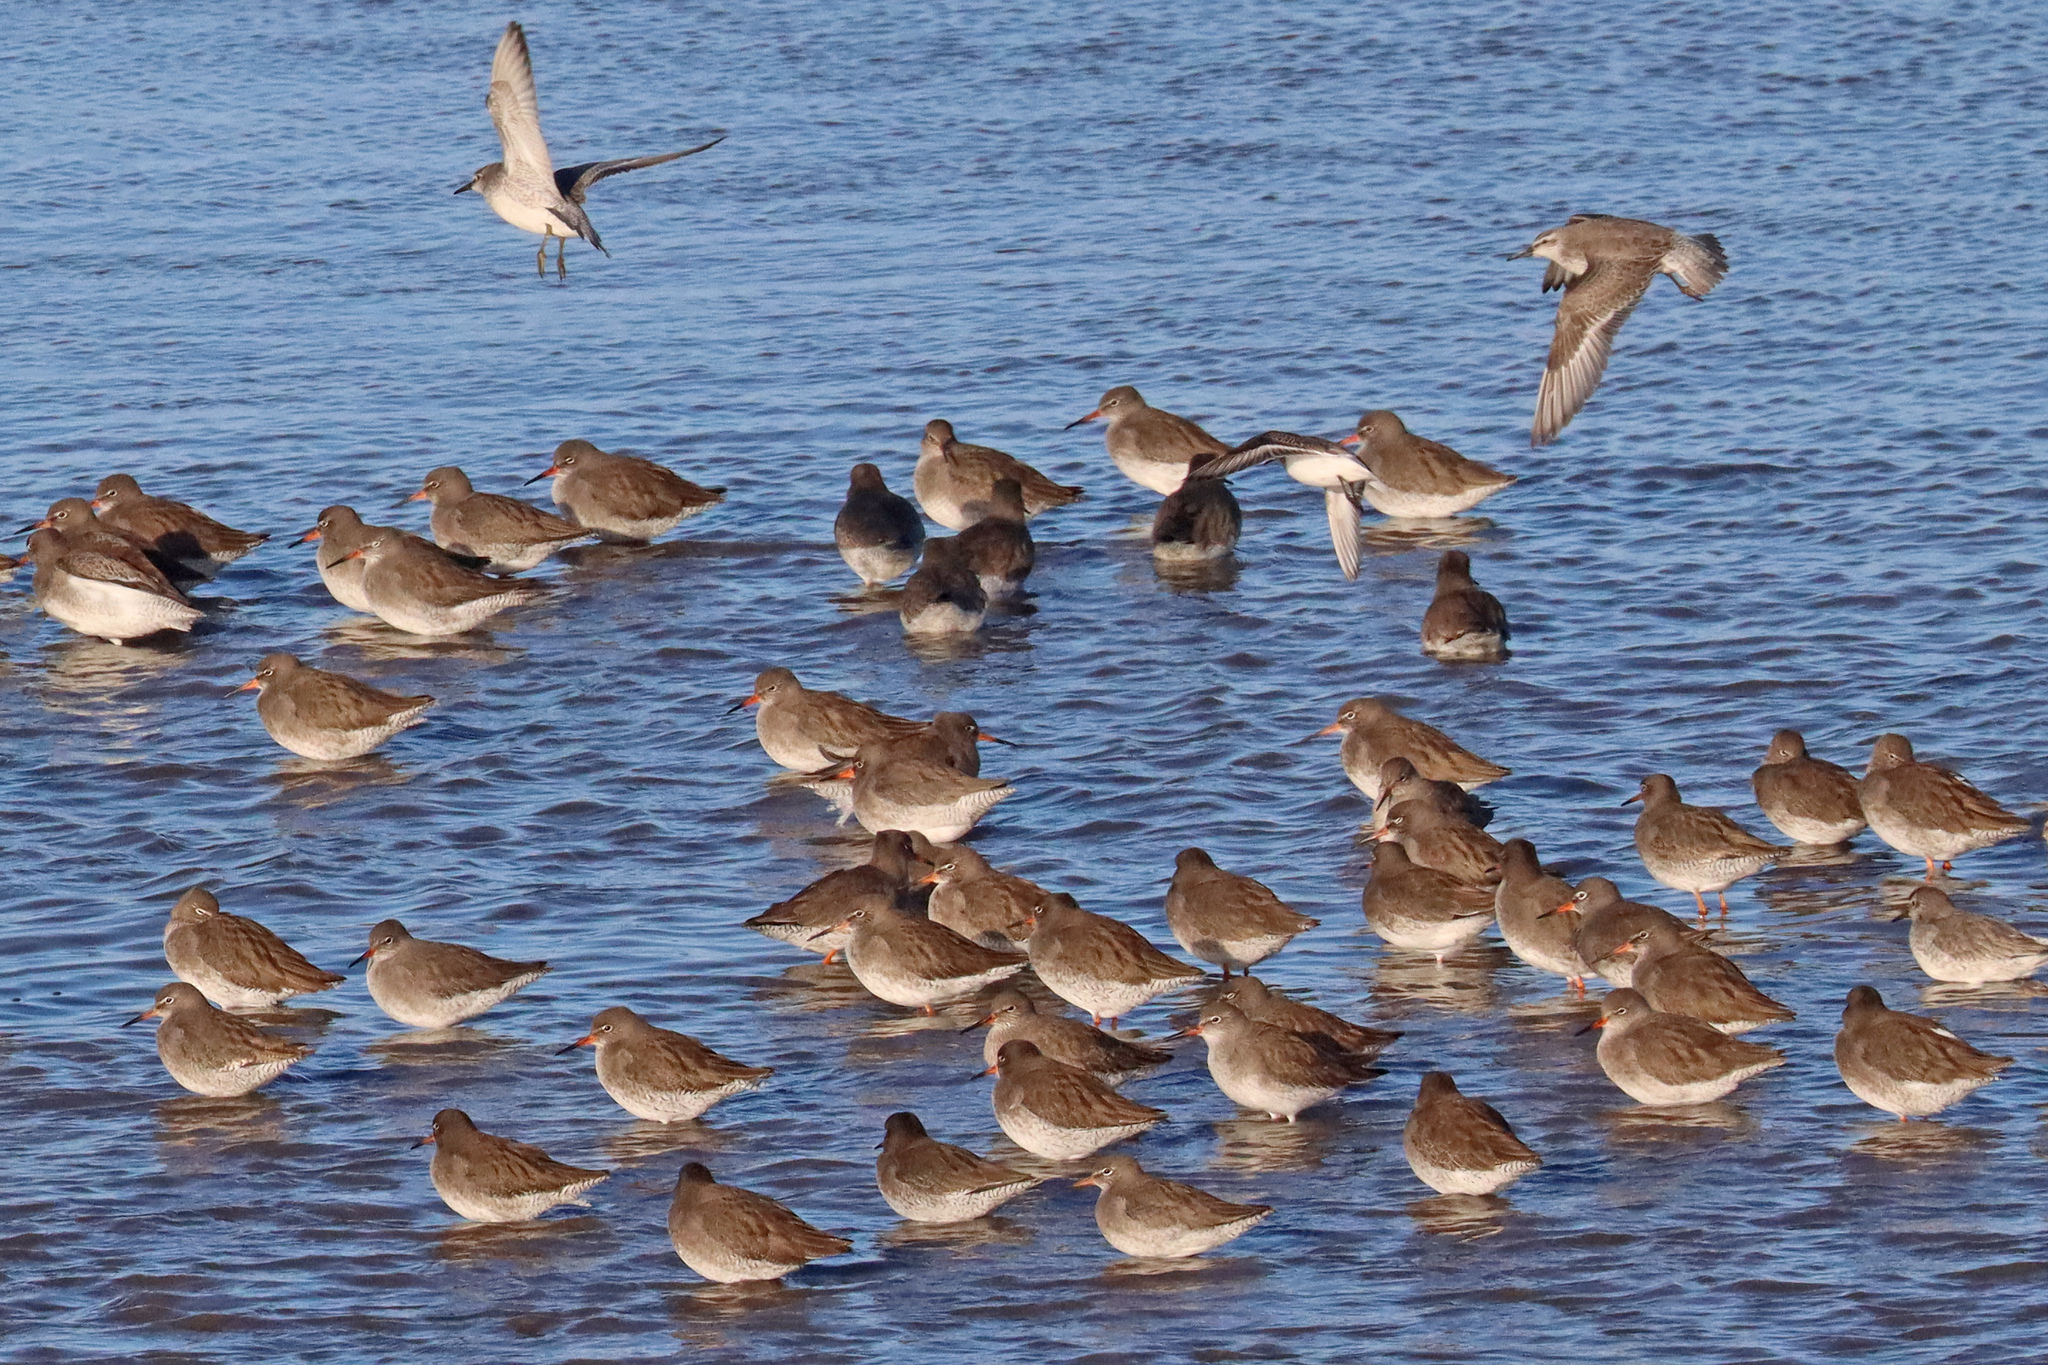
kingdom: Animalia
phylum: Chordata
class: Aves
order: Charadriiformes
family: Scolopacidae
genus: Calidris
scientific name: Calidris canutus
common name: Red knot
